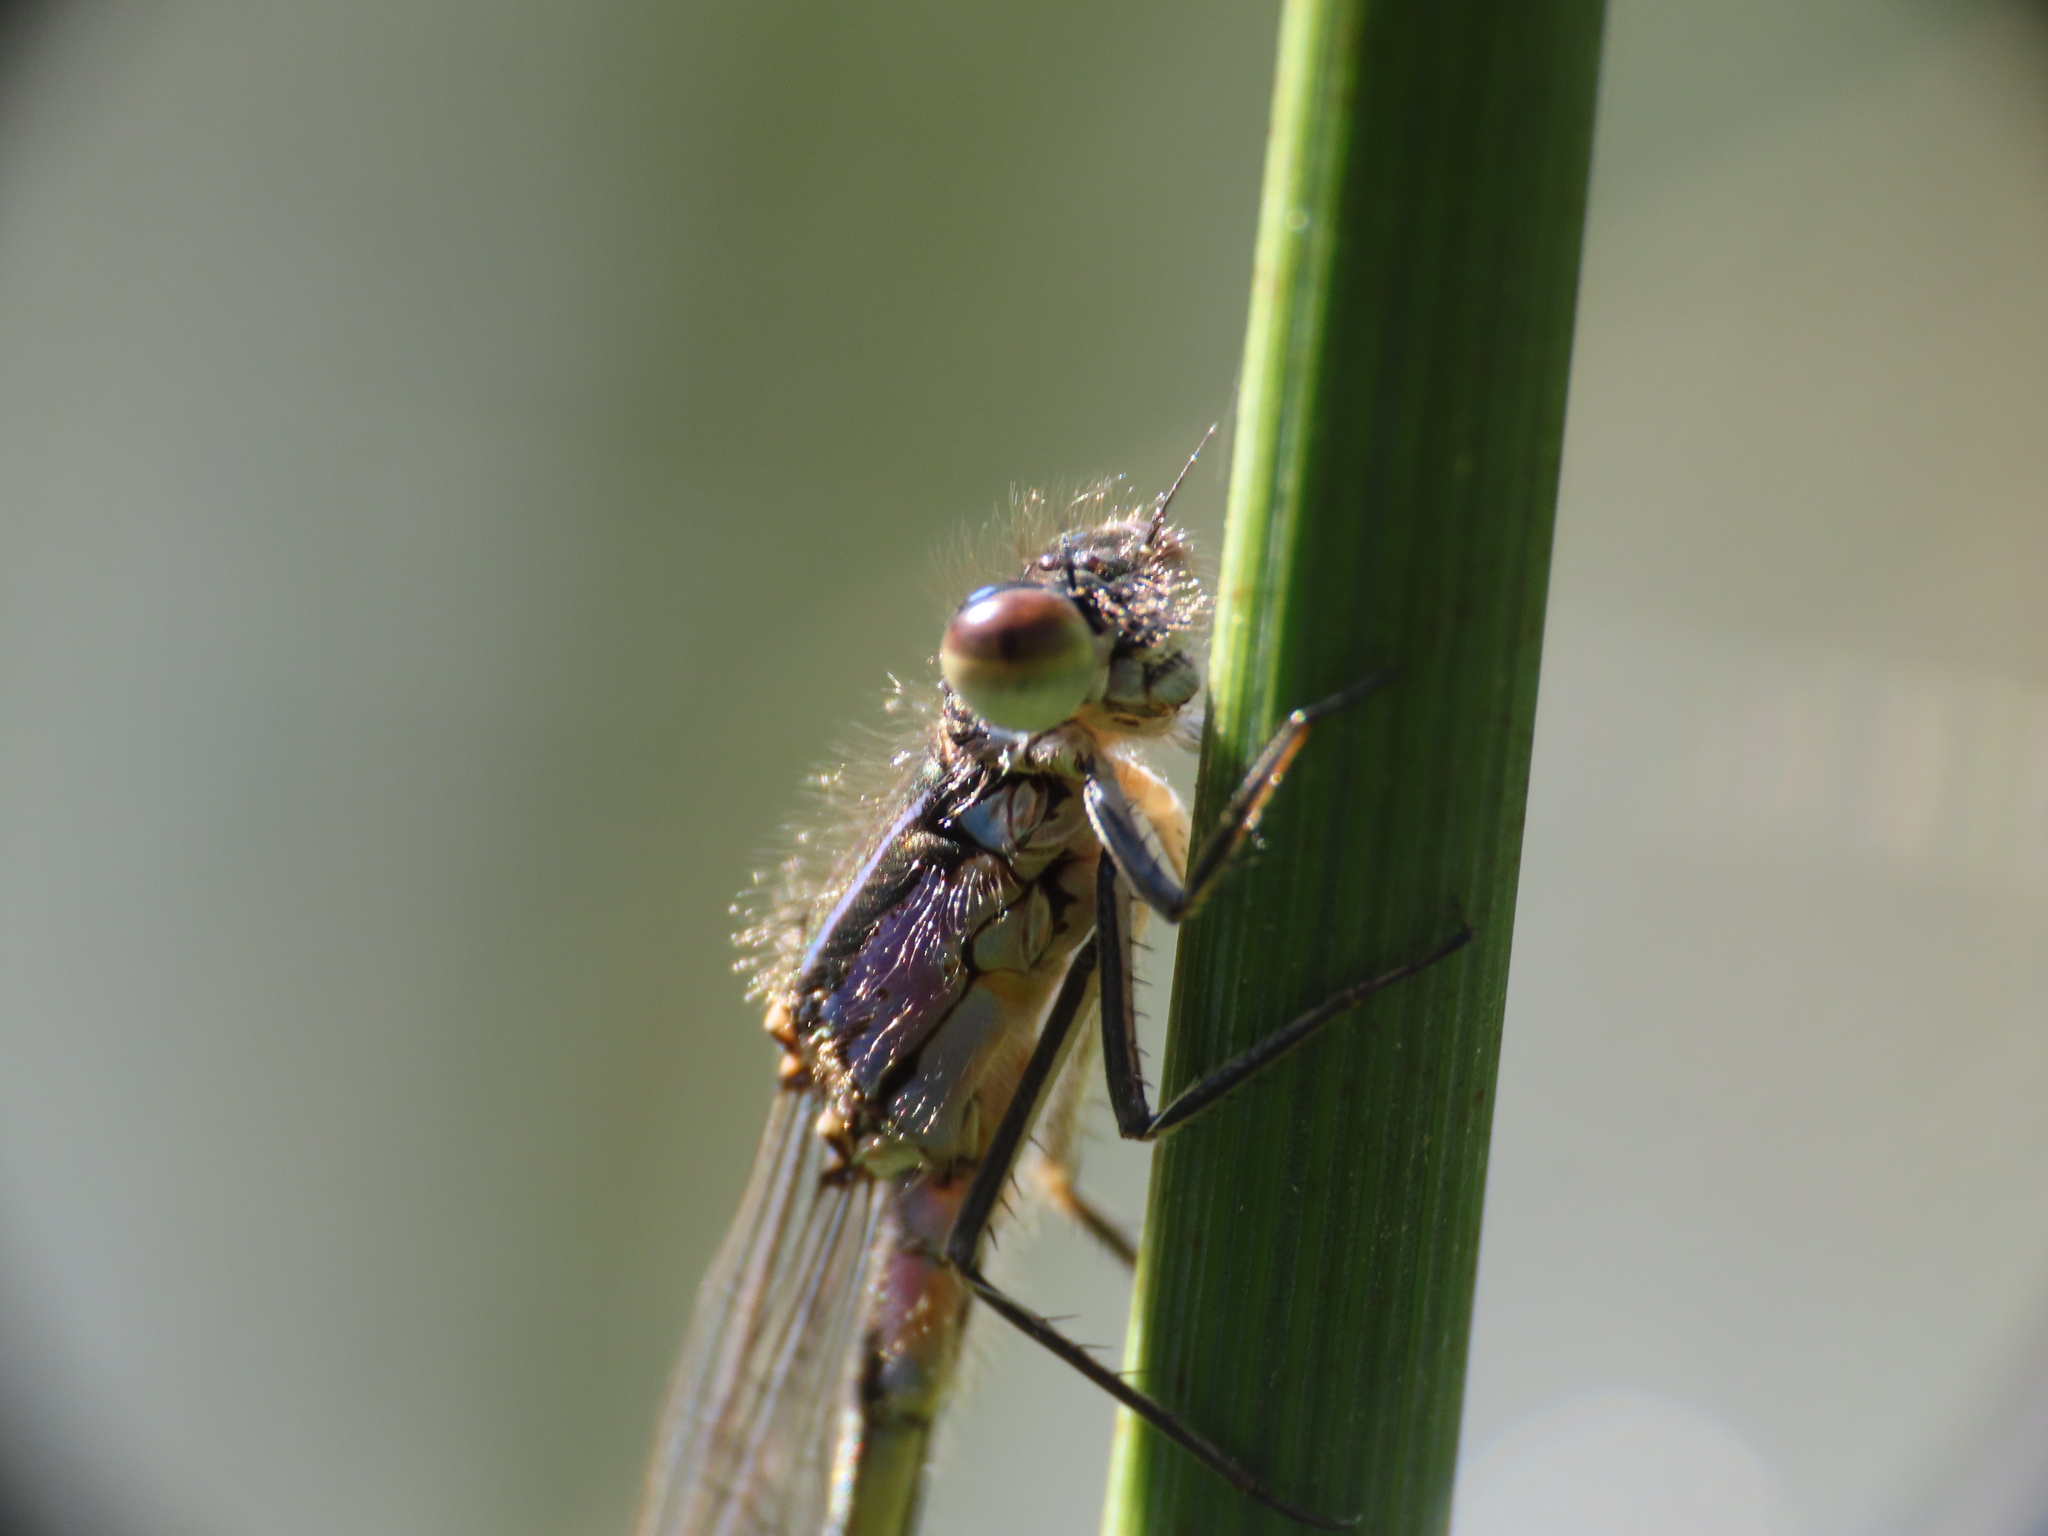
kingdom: Animalia
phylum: Arthropoda
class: Insecta
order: Odonata
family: Coenagrionidae
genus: Ischnura
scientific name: Ischnura elegans
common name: Blue-tailed damselfly
